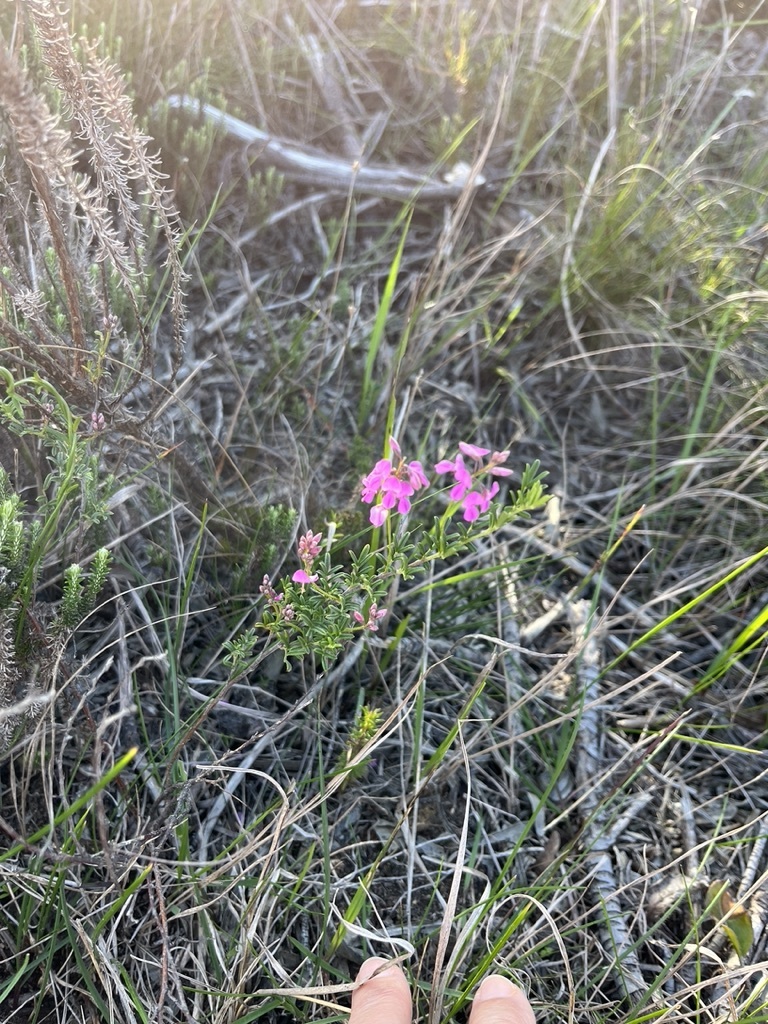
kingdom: Plantae
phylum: Tracheophyta
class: Magnoliopsida
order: Fabales
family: Fabaceae
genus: Indigofera
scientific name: Indigofera angustifolia
